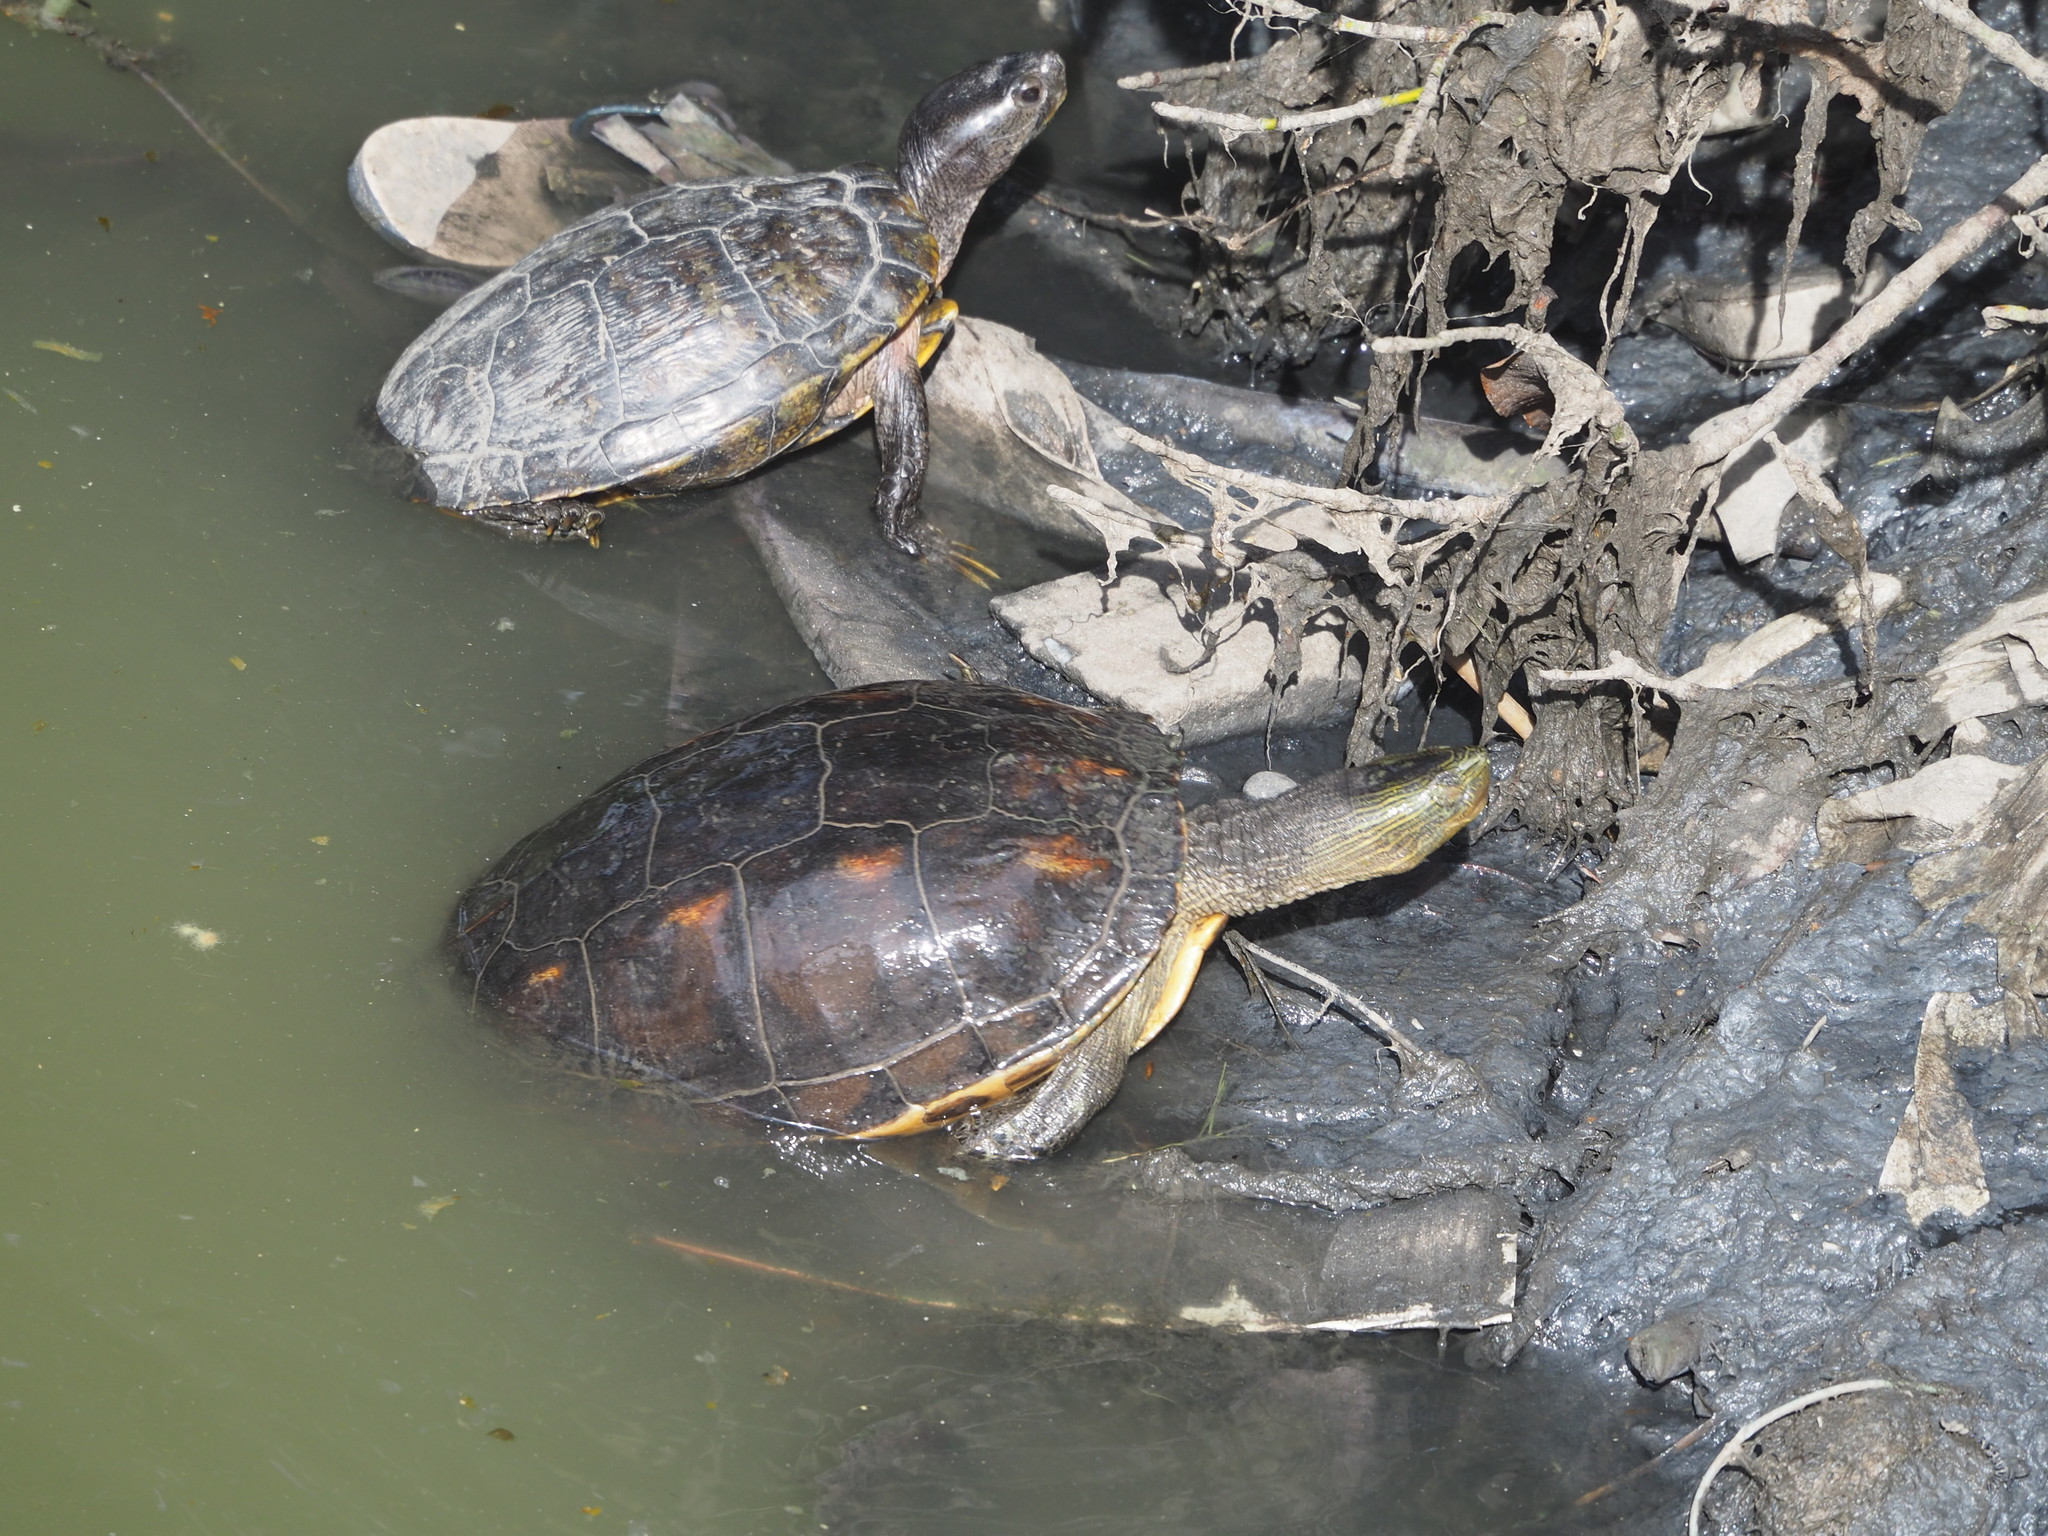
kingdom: Animalia
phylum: Chordata
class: Testudines
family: Geoemydidae
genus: Mauremys
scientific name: Mauremys sinensis
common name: Chinese stripe-necked turtle
